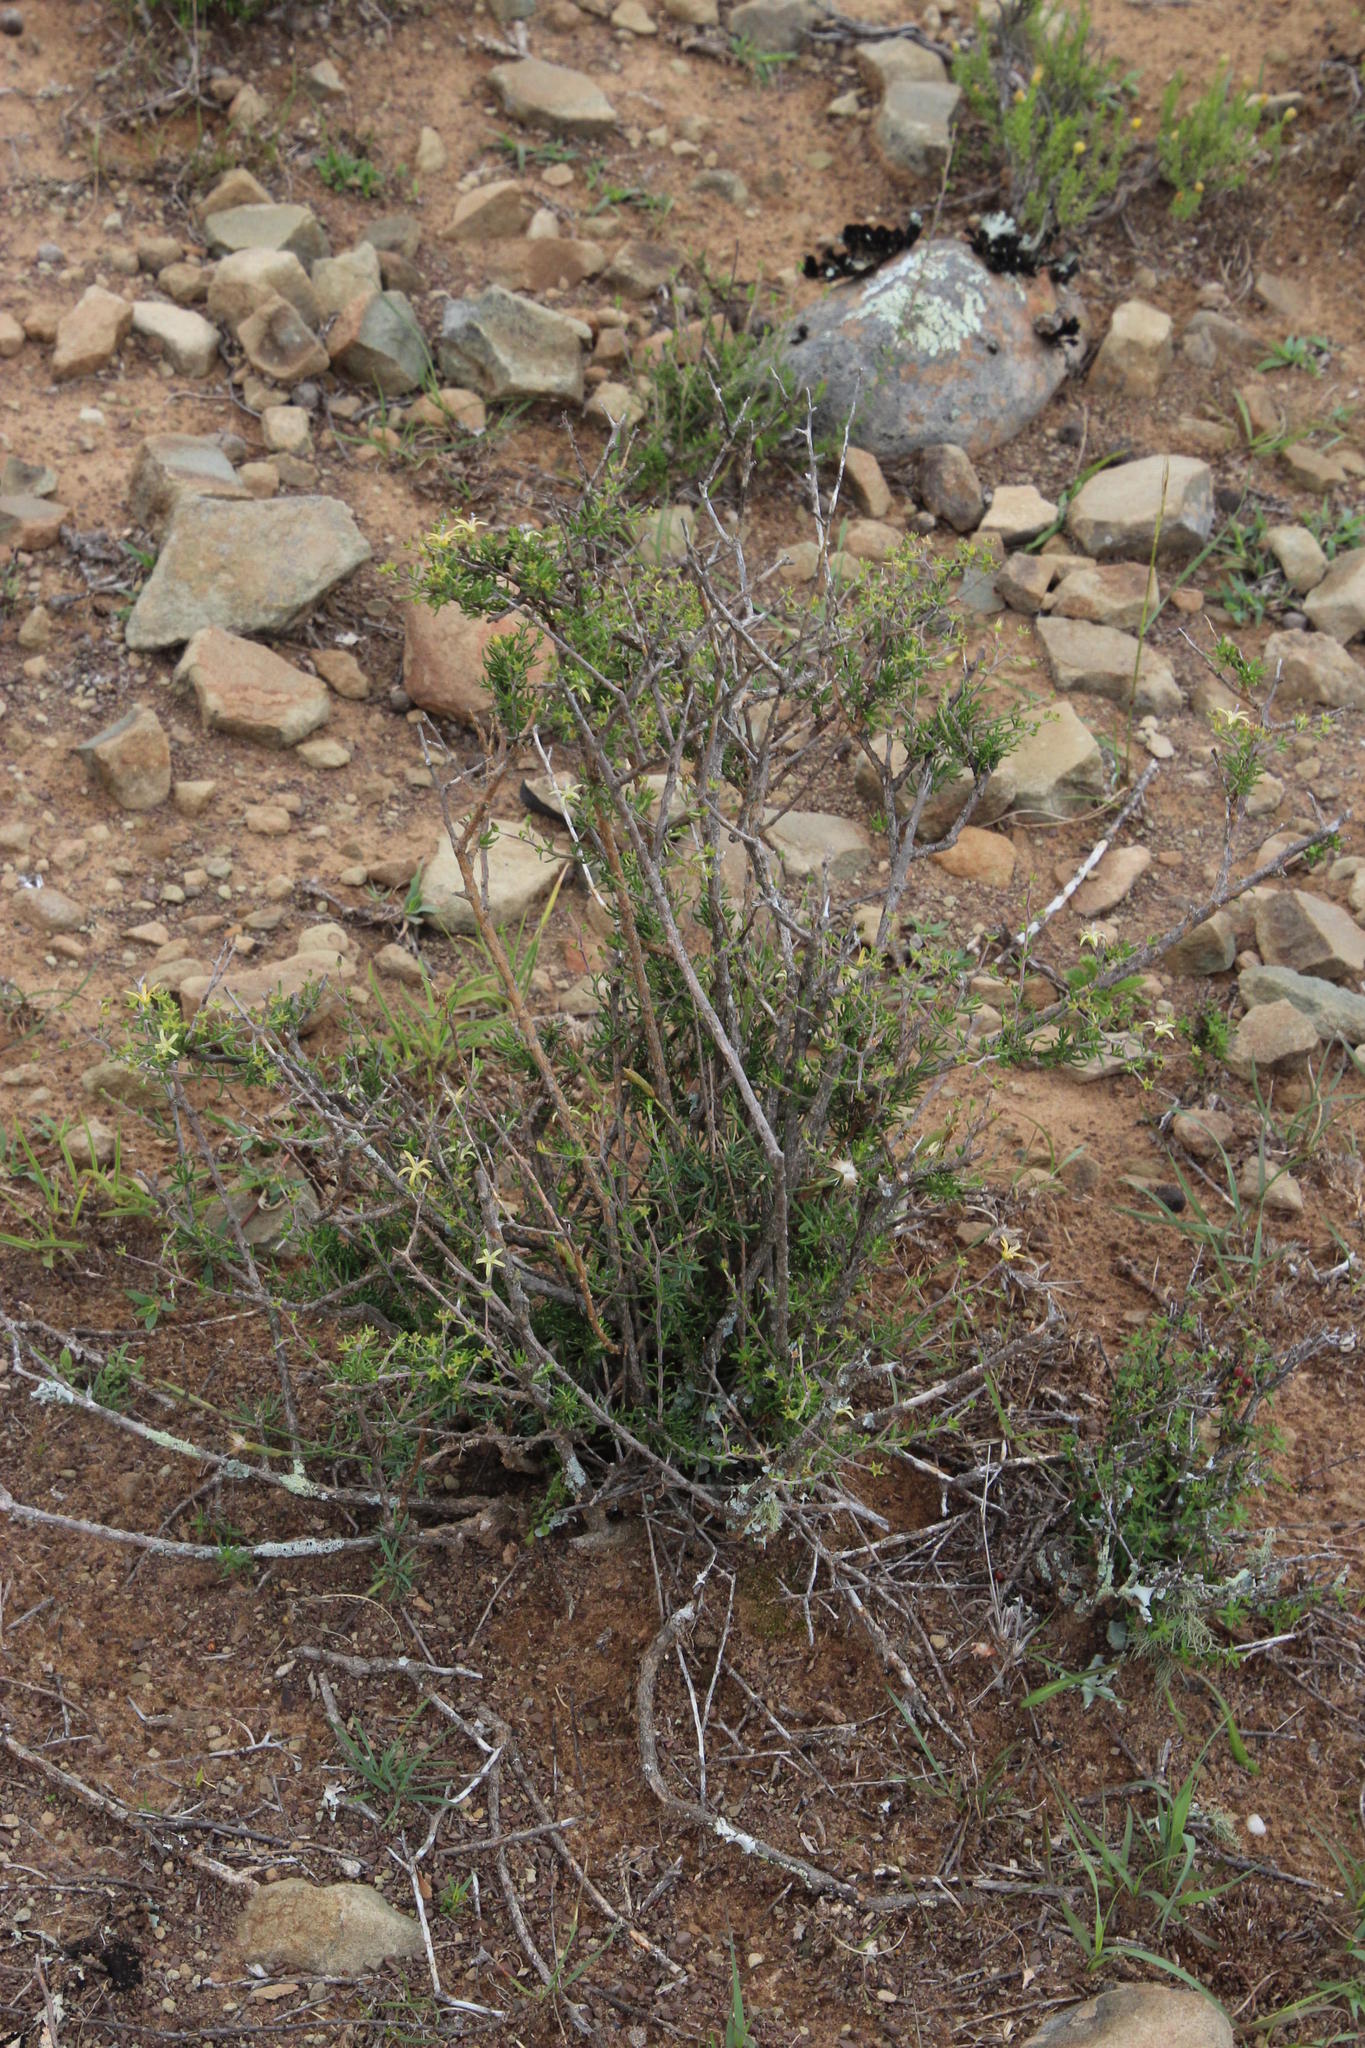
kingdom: Plantae
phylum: Tracheophyta
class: Magnoliopsida
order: Asterales
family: Campanulaceae
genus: Wahlenbergia
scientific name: Wahlenbergia albens
